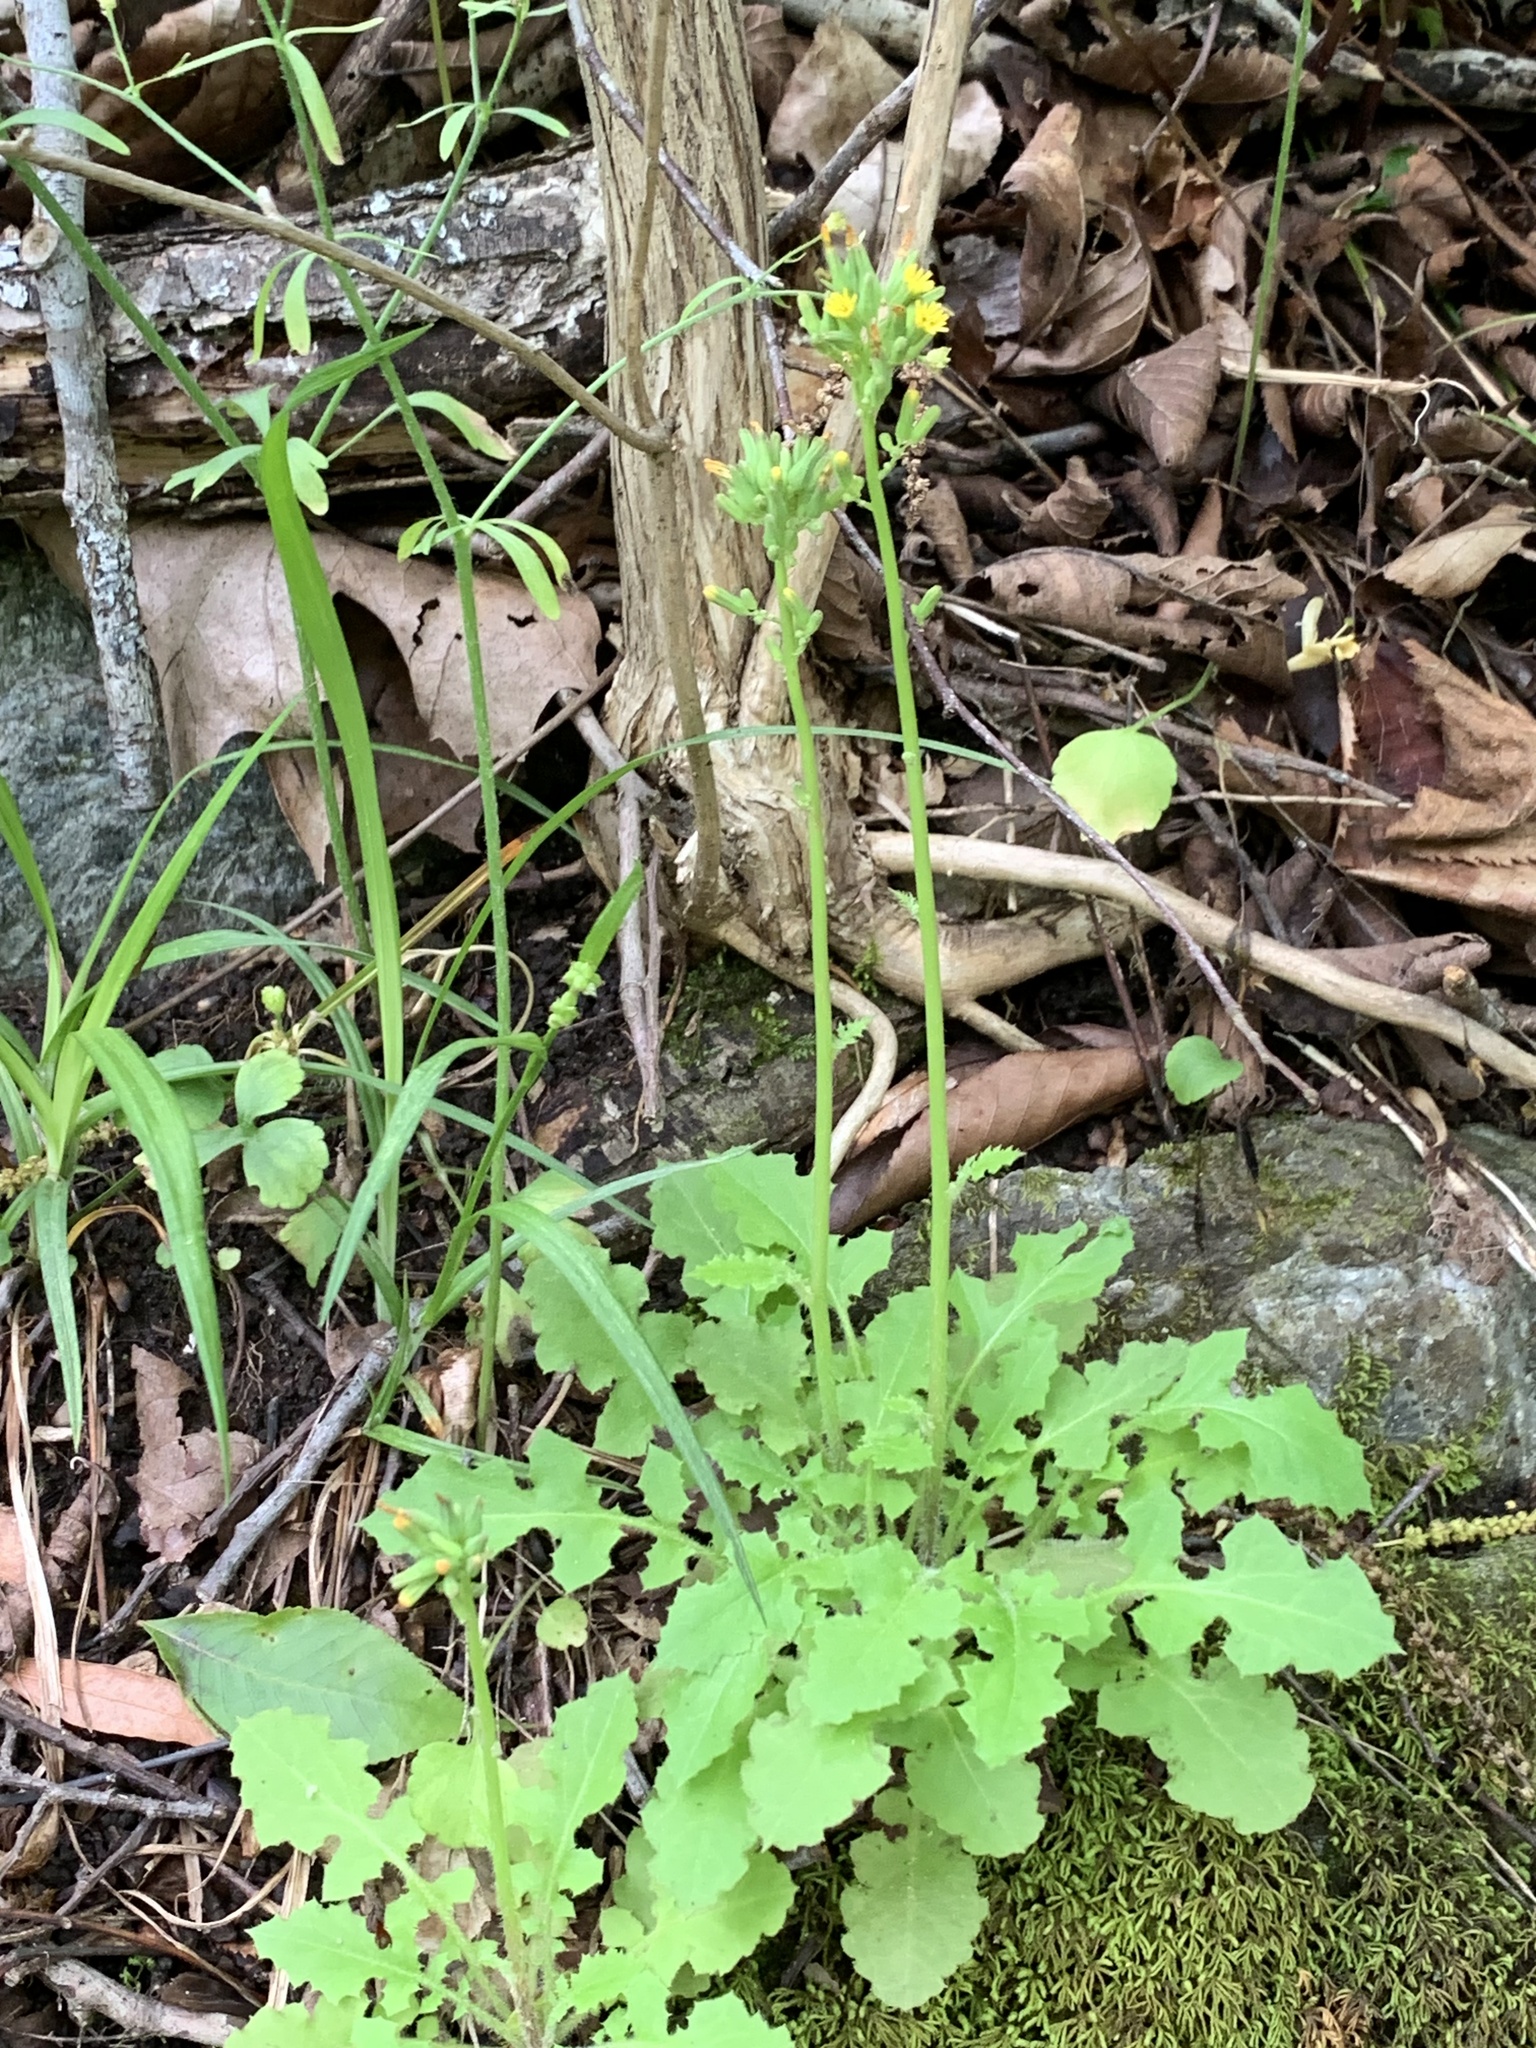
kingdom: Plantae
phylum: Tracheophyta
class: Magnoliopsida
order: Asterales
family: Asteraceae
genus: Youngia
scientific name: Youngia japonica
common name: Oriental false hawksbeard
